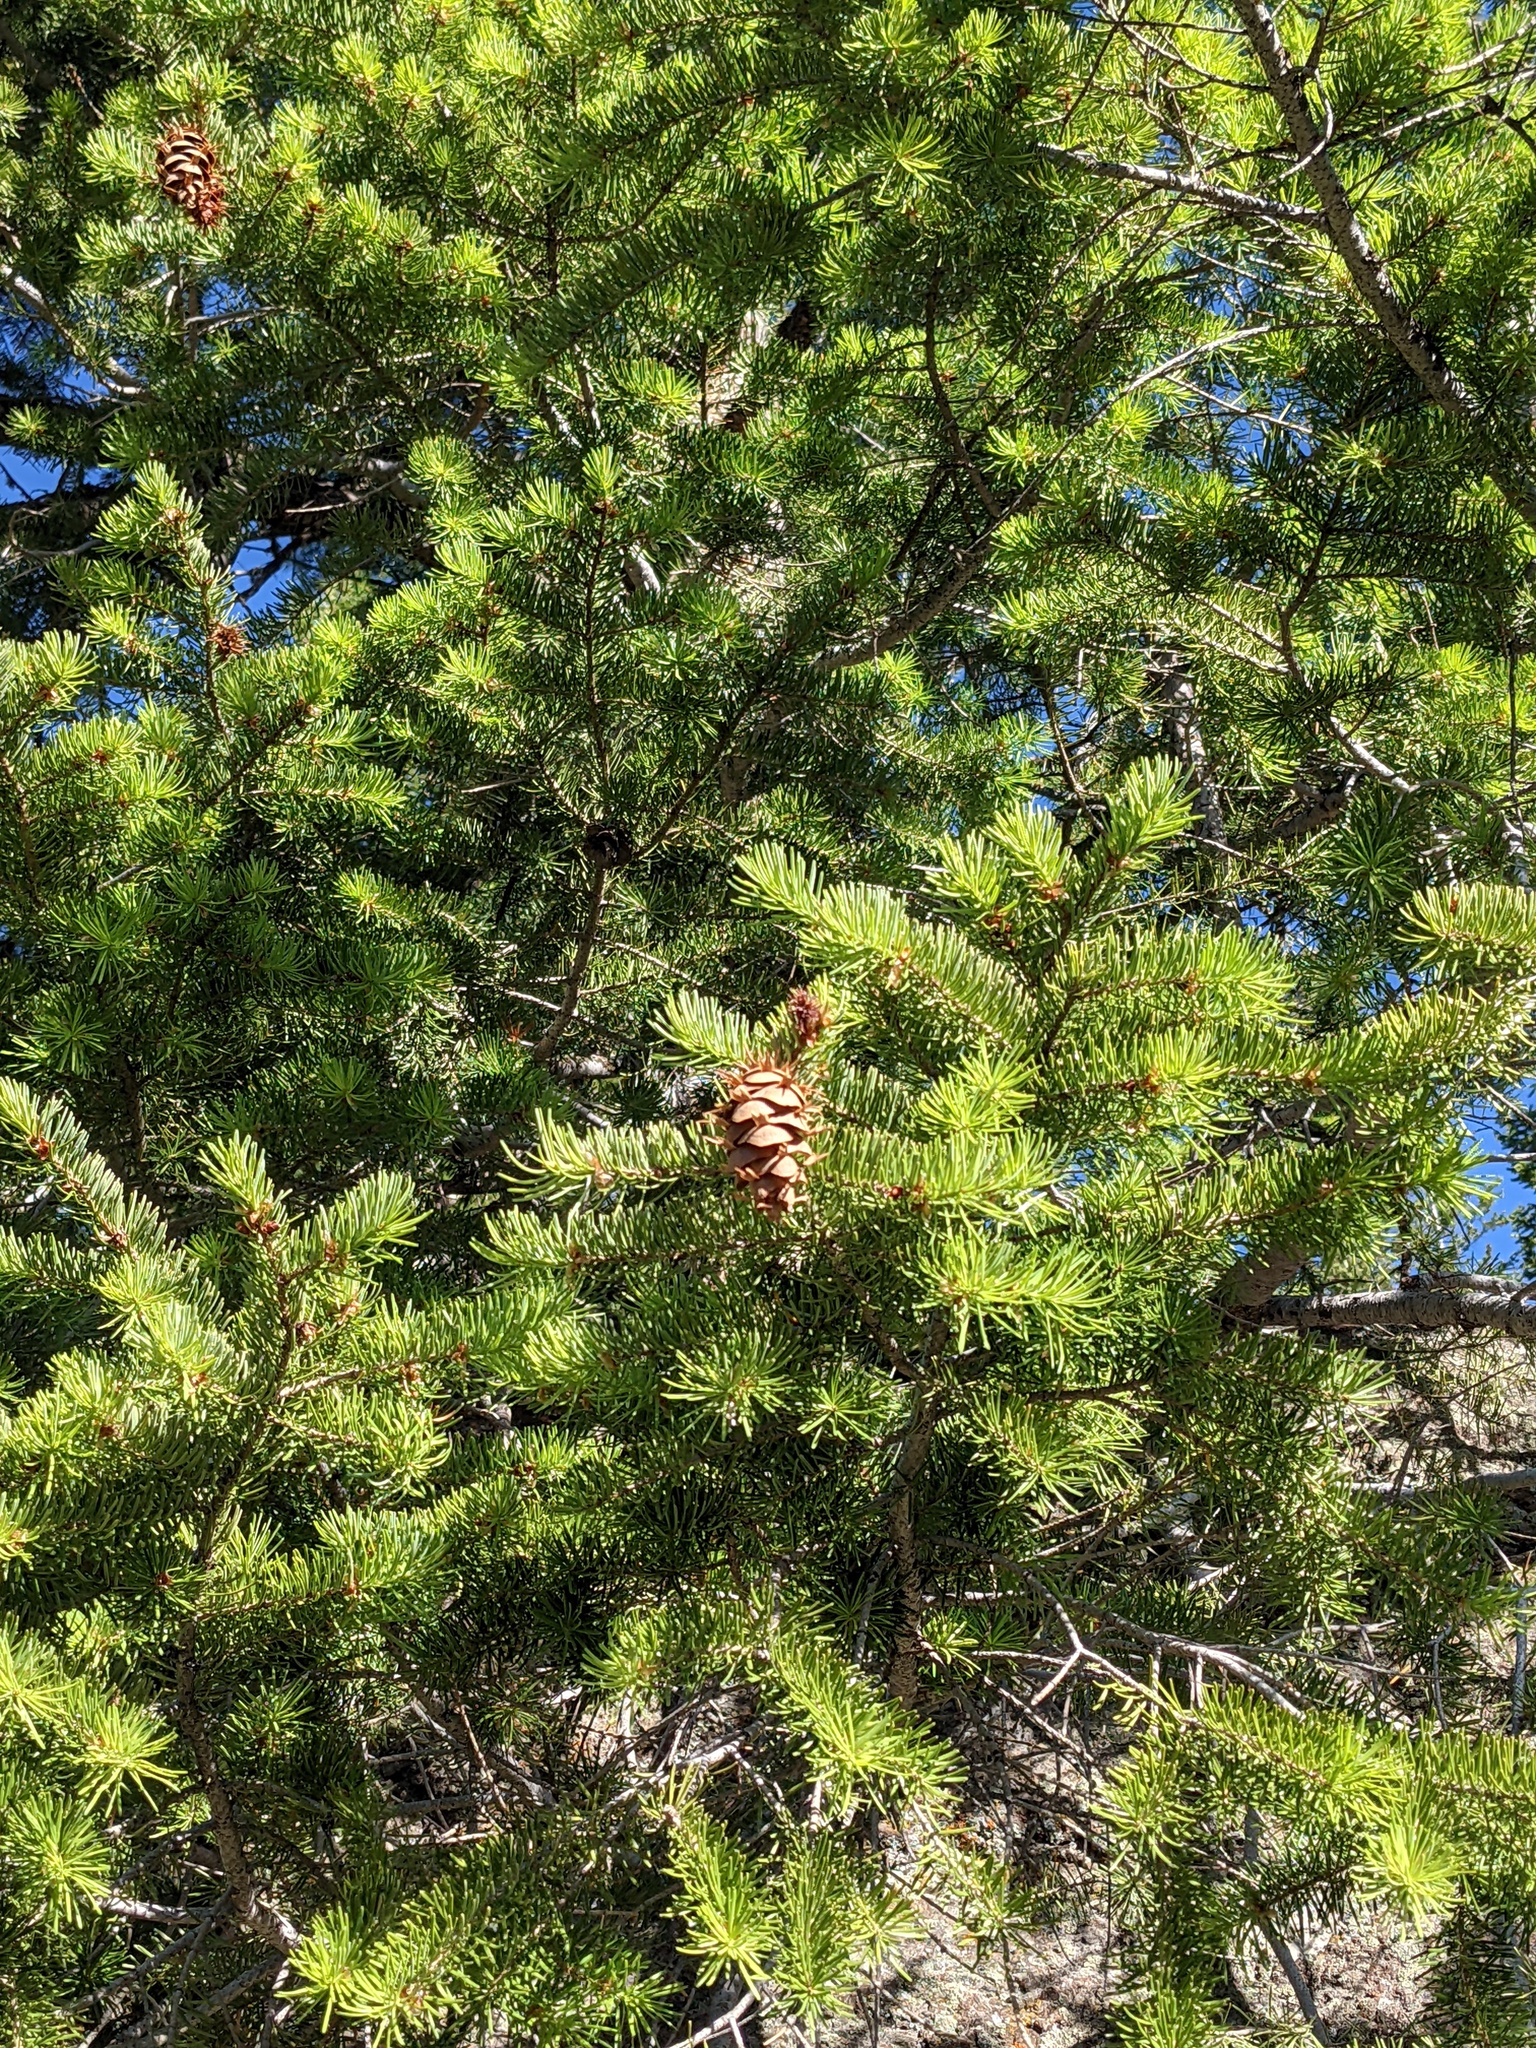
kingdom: Plantae
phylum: Tracheophyta
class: Pinopsida
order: Pinales
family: Pinaceae
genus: Pseudotsuga
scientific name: Pseudotsuga menziesii
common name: Douglas fir
